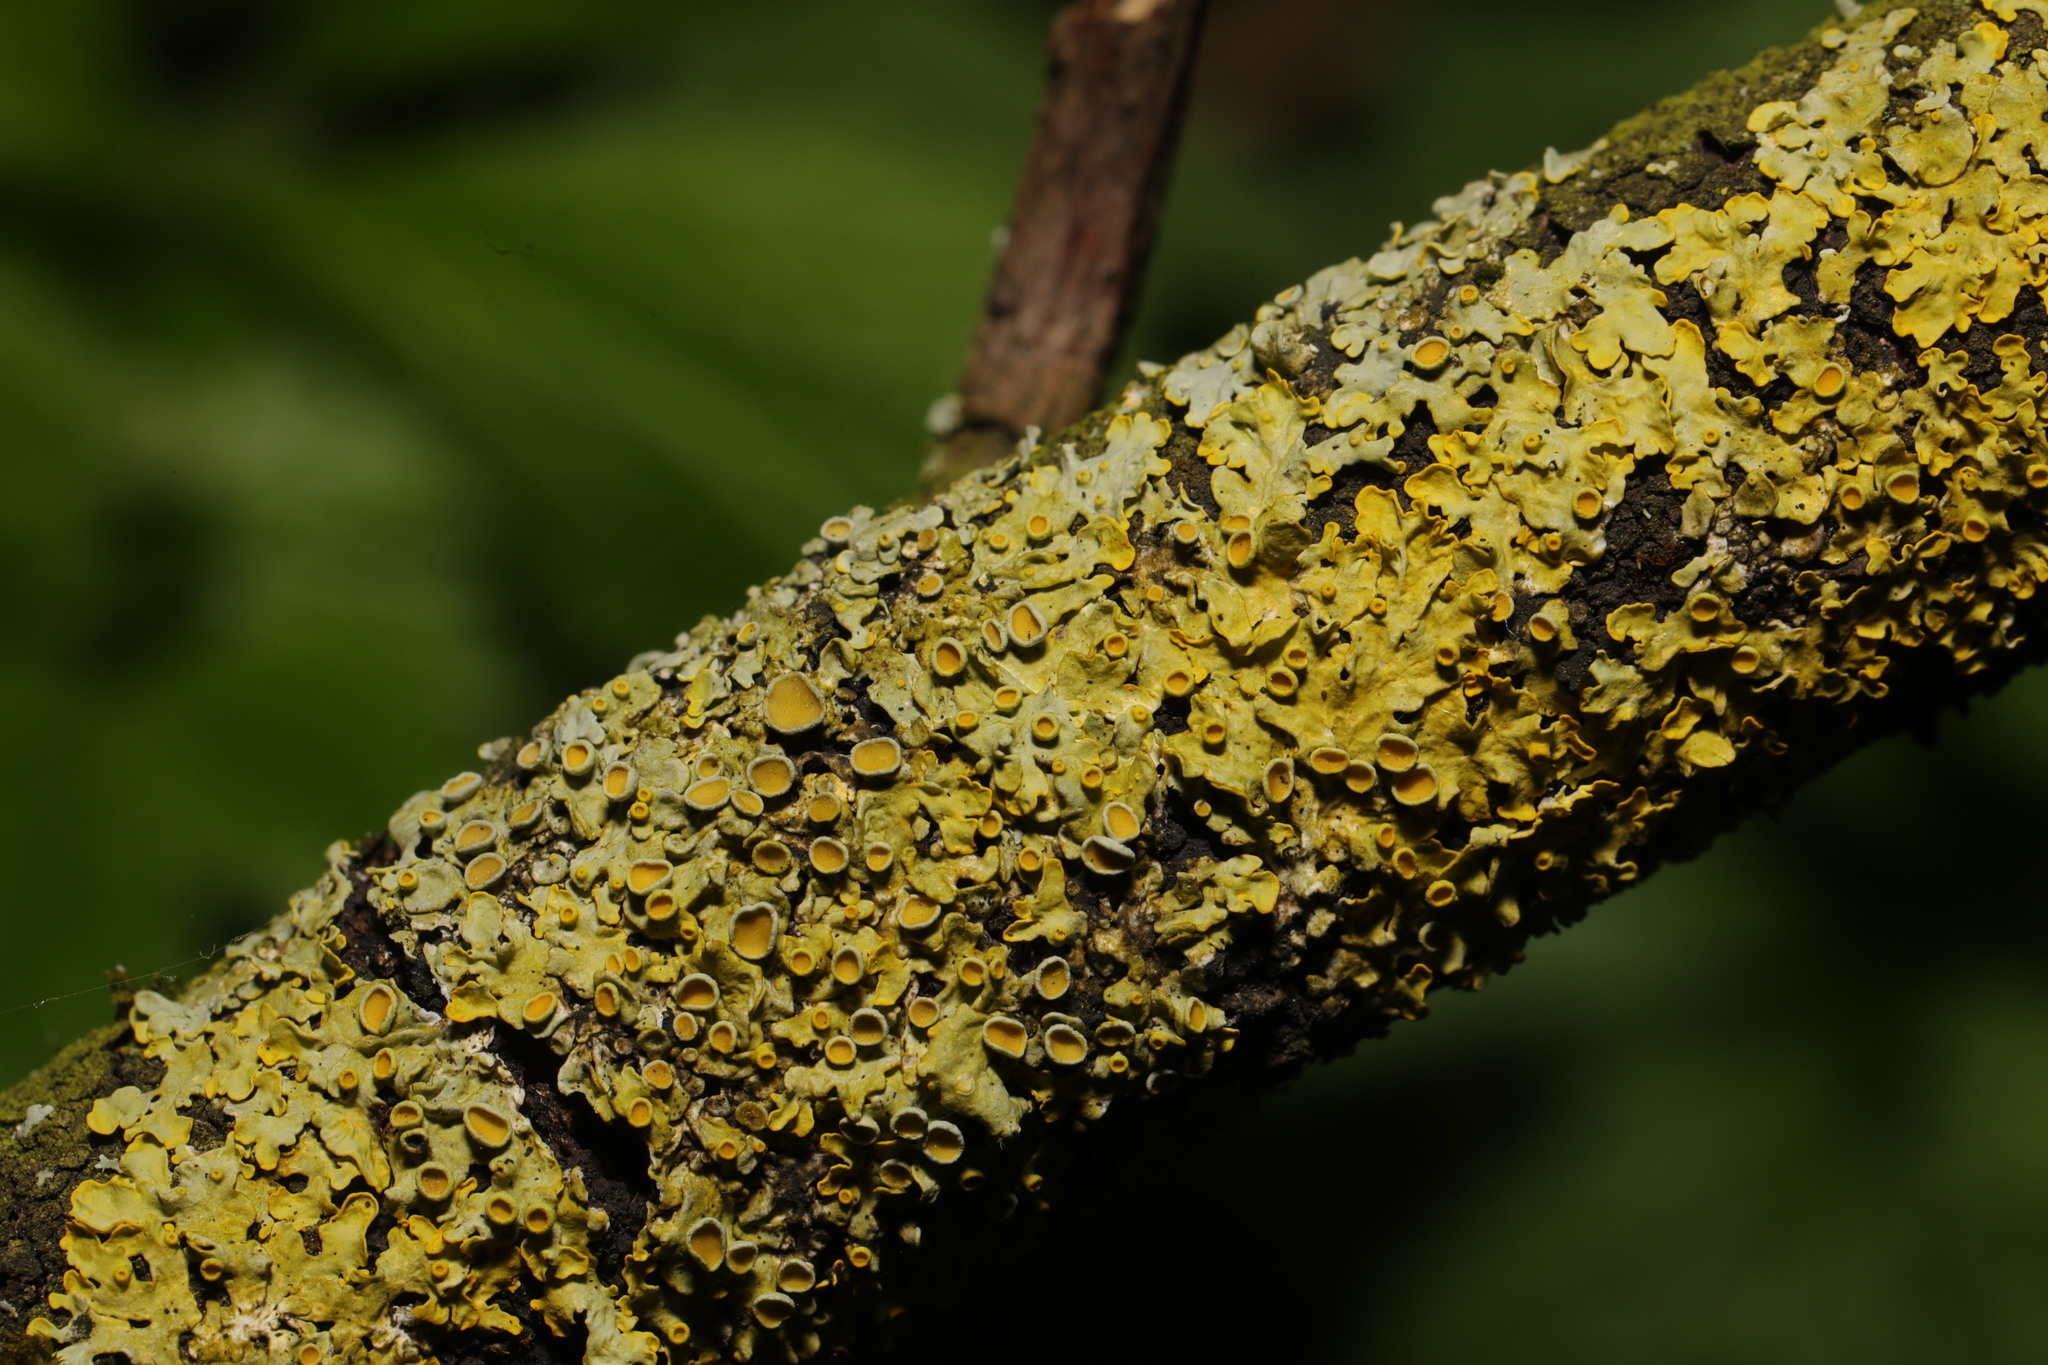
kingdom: Fungi
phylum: Ascomycota
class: Lecanoromycetes
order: Teloschistales
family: Teloschistaceae
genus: Xanthoria
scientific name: Xanthoria parietina
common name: Common orange lichen
